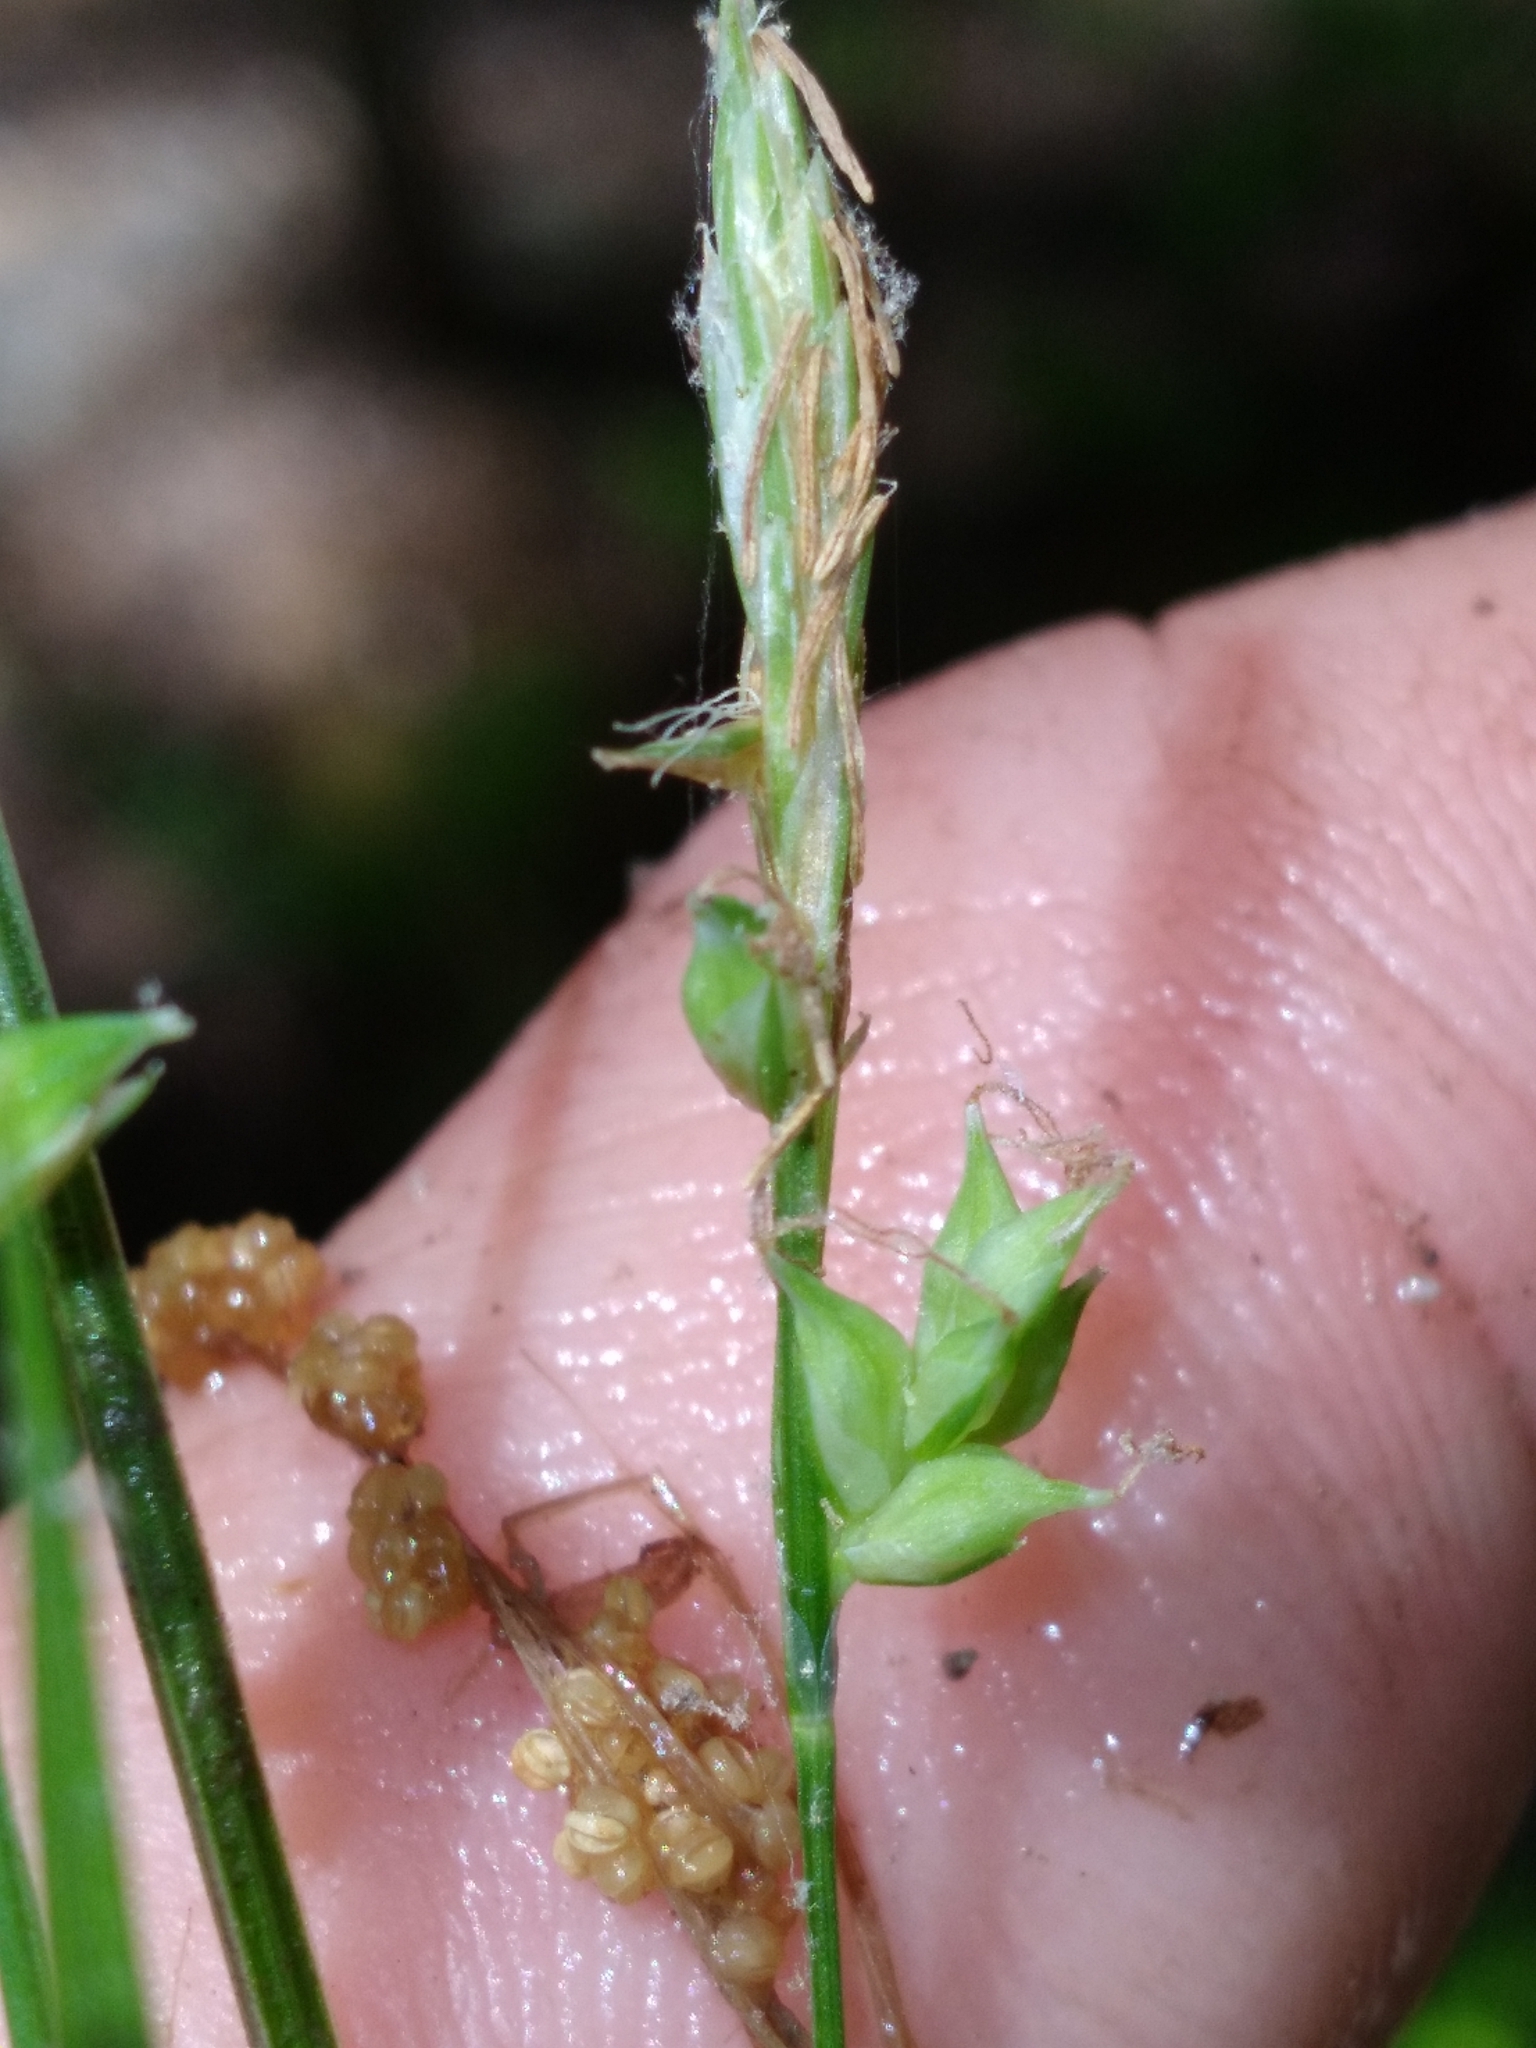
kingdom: Plantae
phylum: Tracheophyta
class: Liliopsida
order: Poales
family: Cyperaceae
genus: Carex
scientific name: Carex styloflexa
